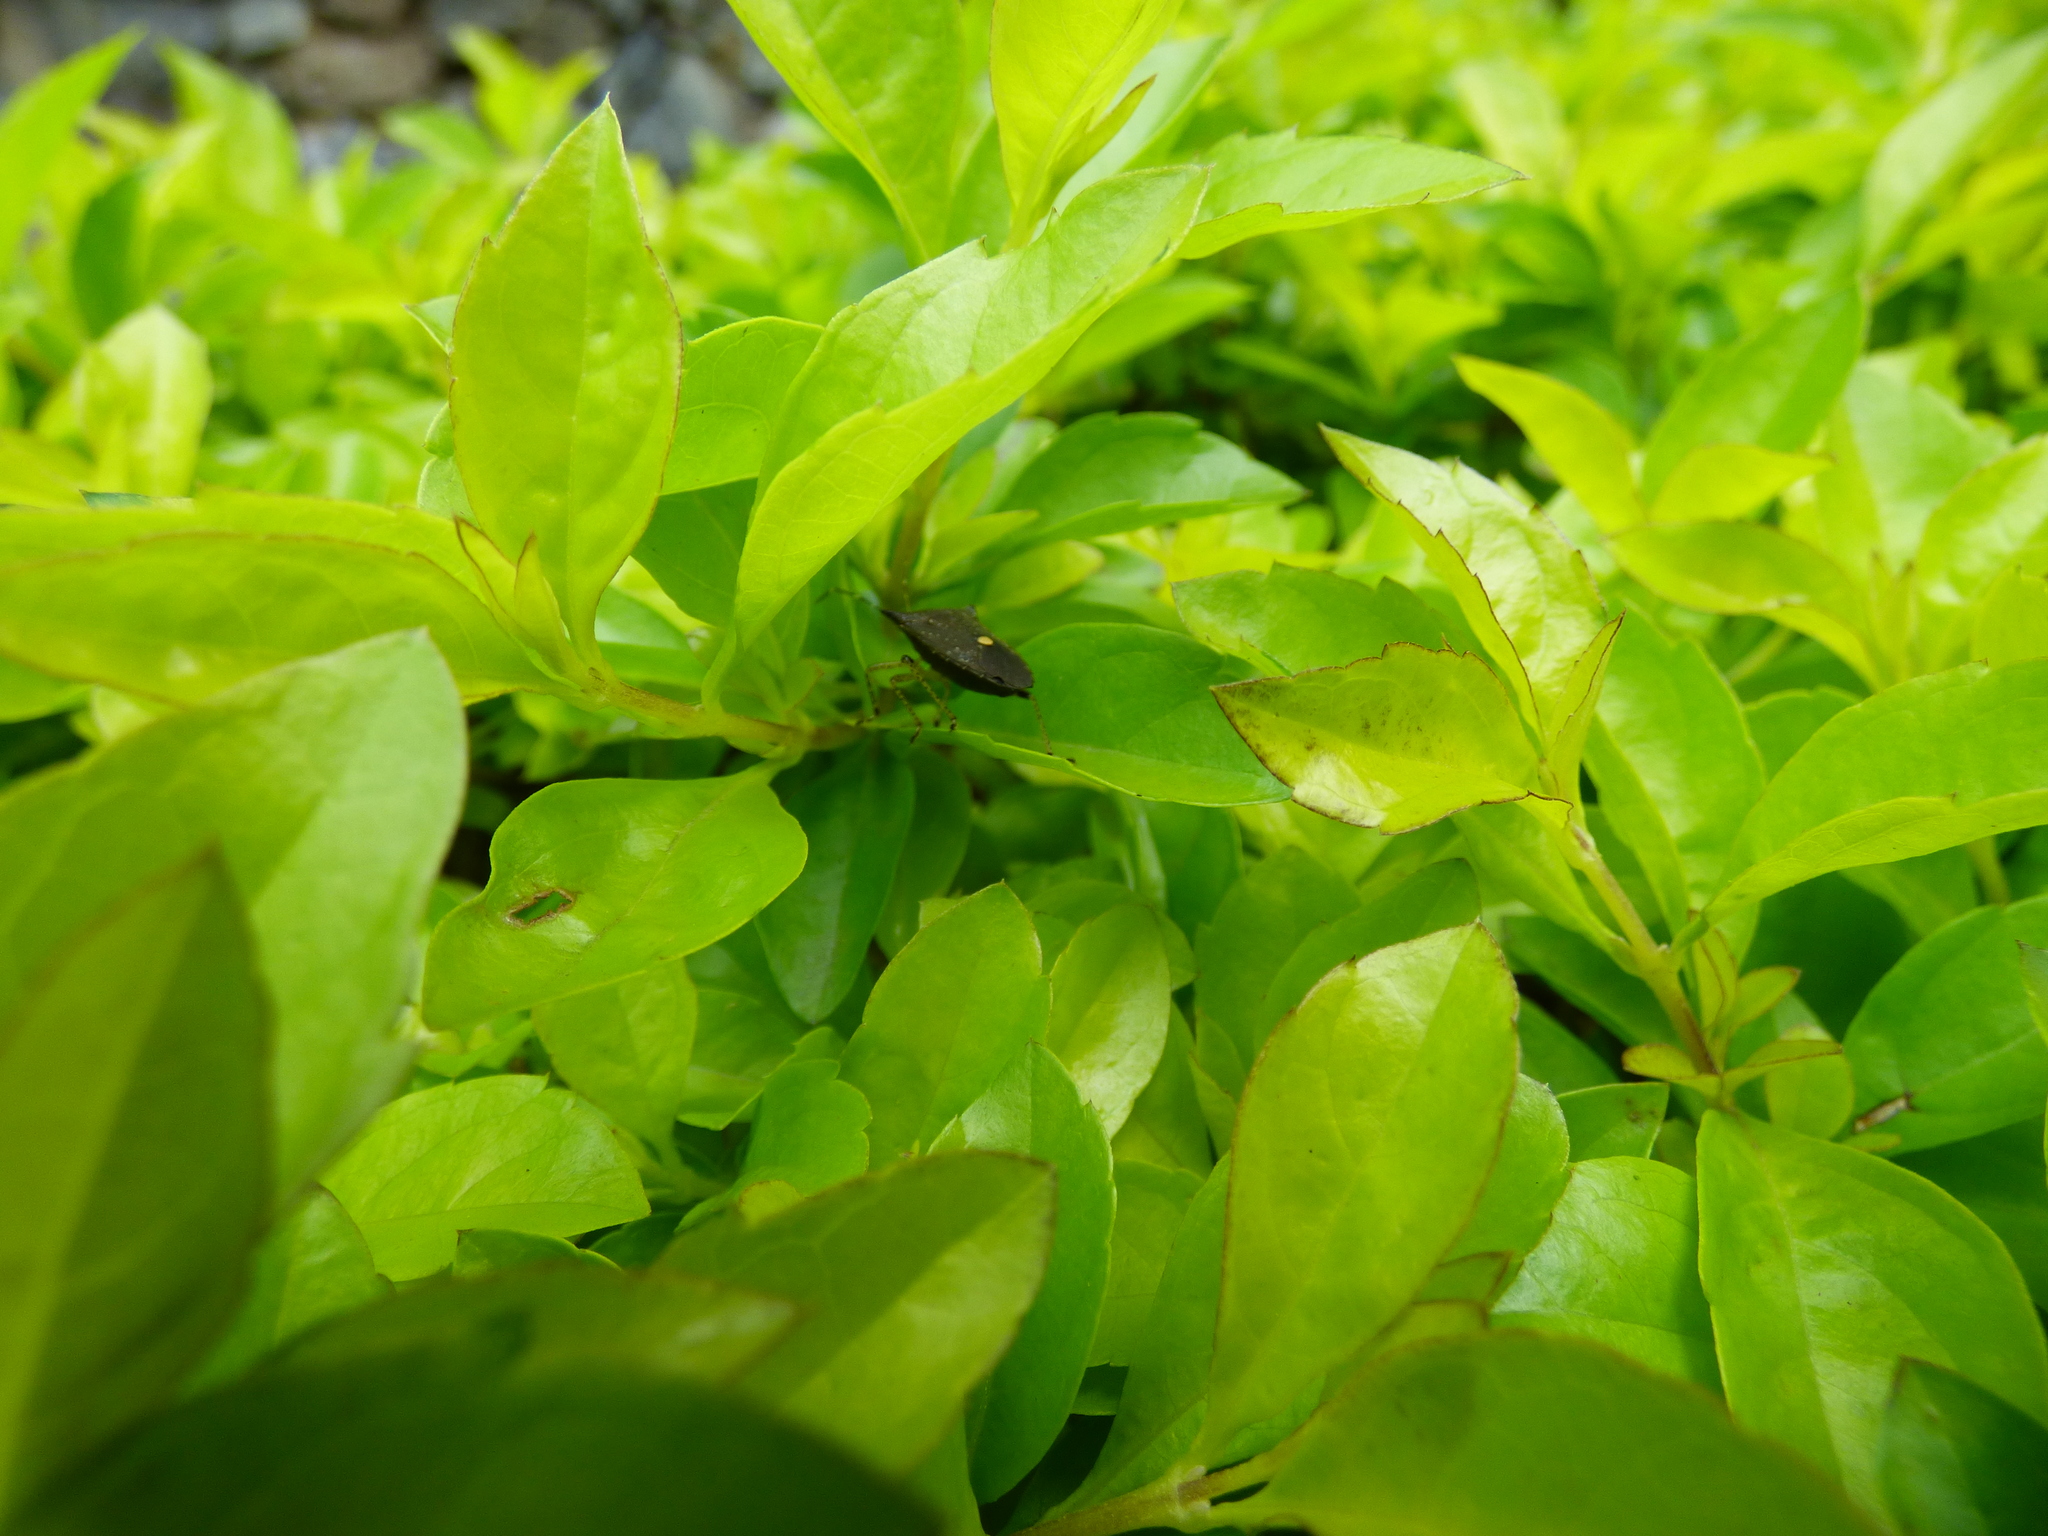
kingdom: Animalia
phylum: Arthropoda
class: Insecta
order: Hemiptera
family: Pentatomidae
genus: Proxys
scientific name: Proxys victor
